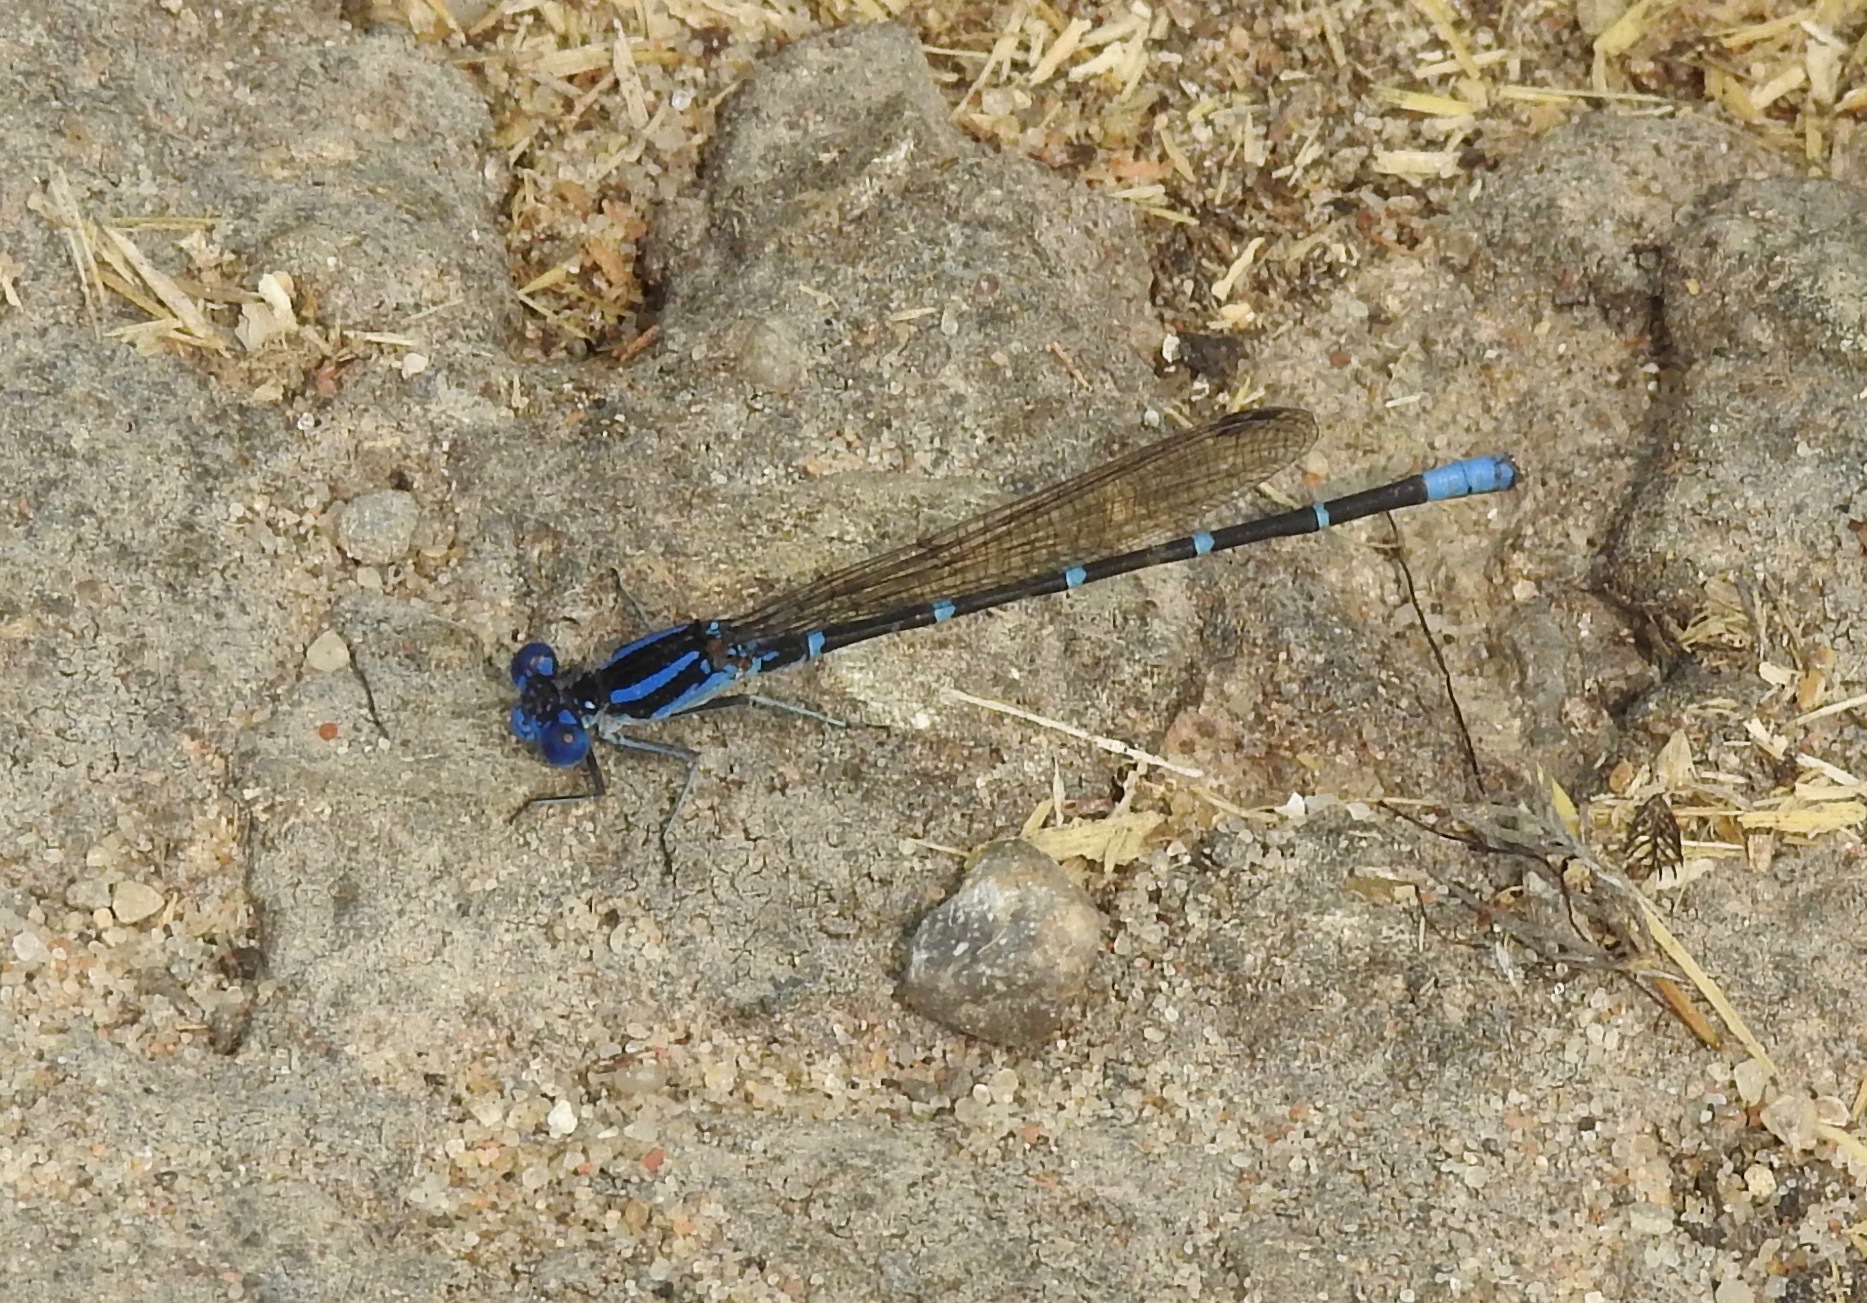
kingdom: Animalia
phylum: Arthropoda
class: Insecta
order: Odonata
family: Coenagrionidae
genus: Argia
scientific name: Argia sedula
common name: Blue-ringed dancer
